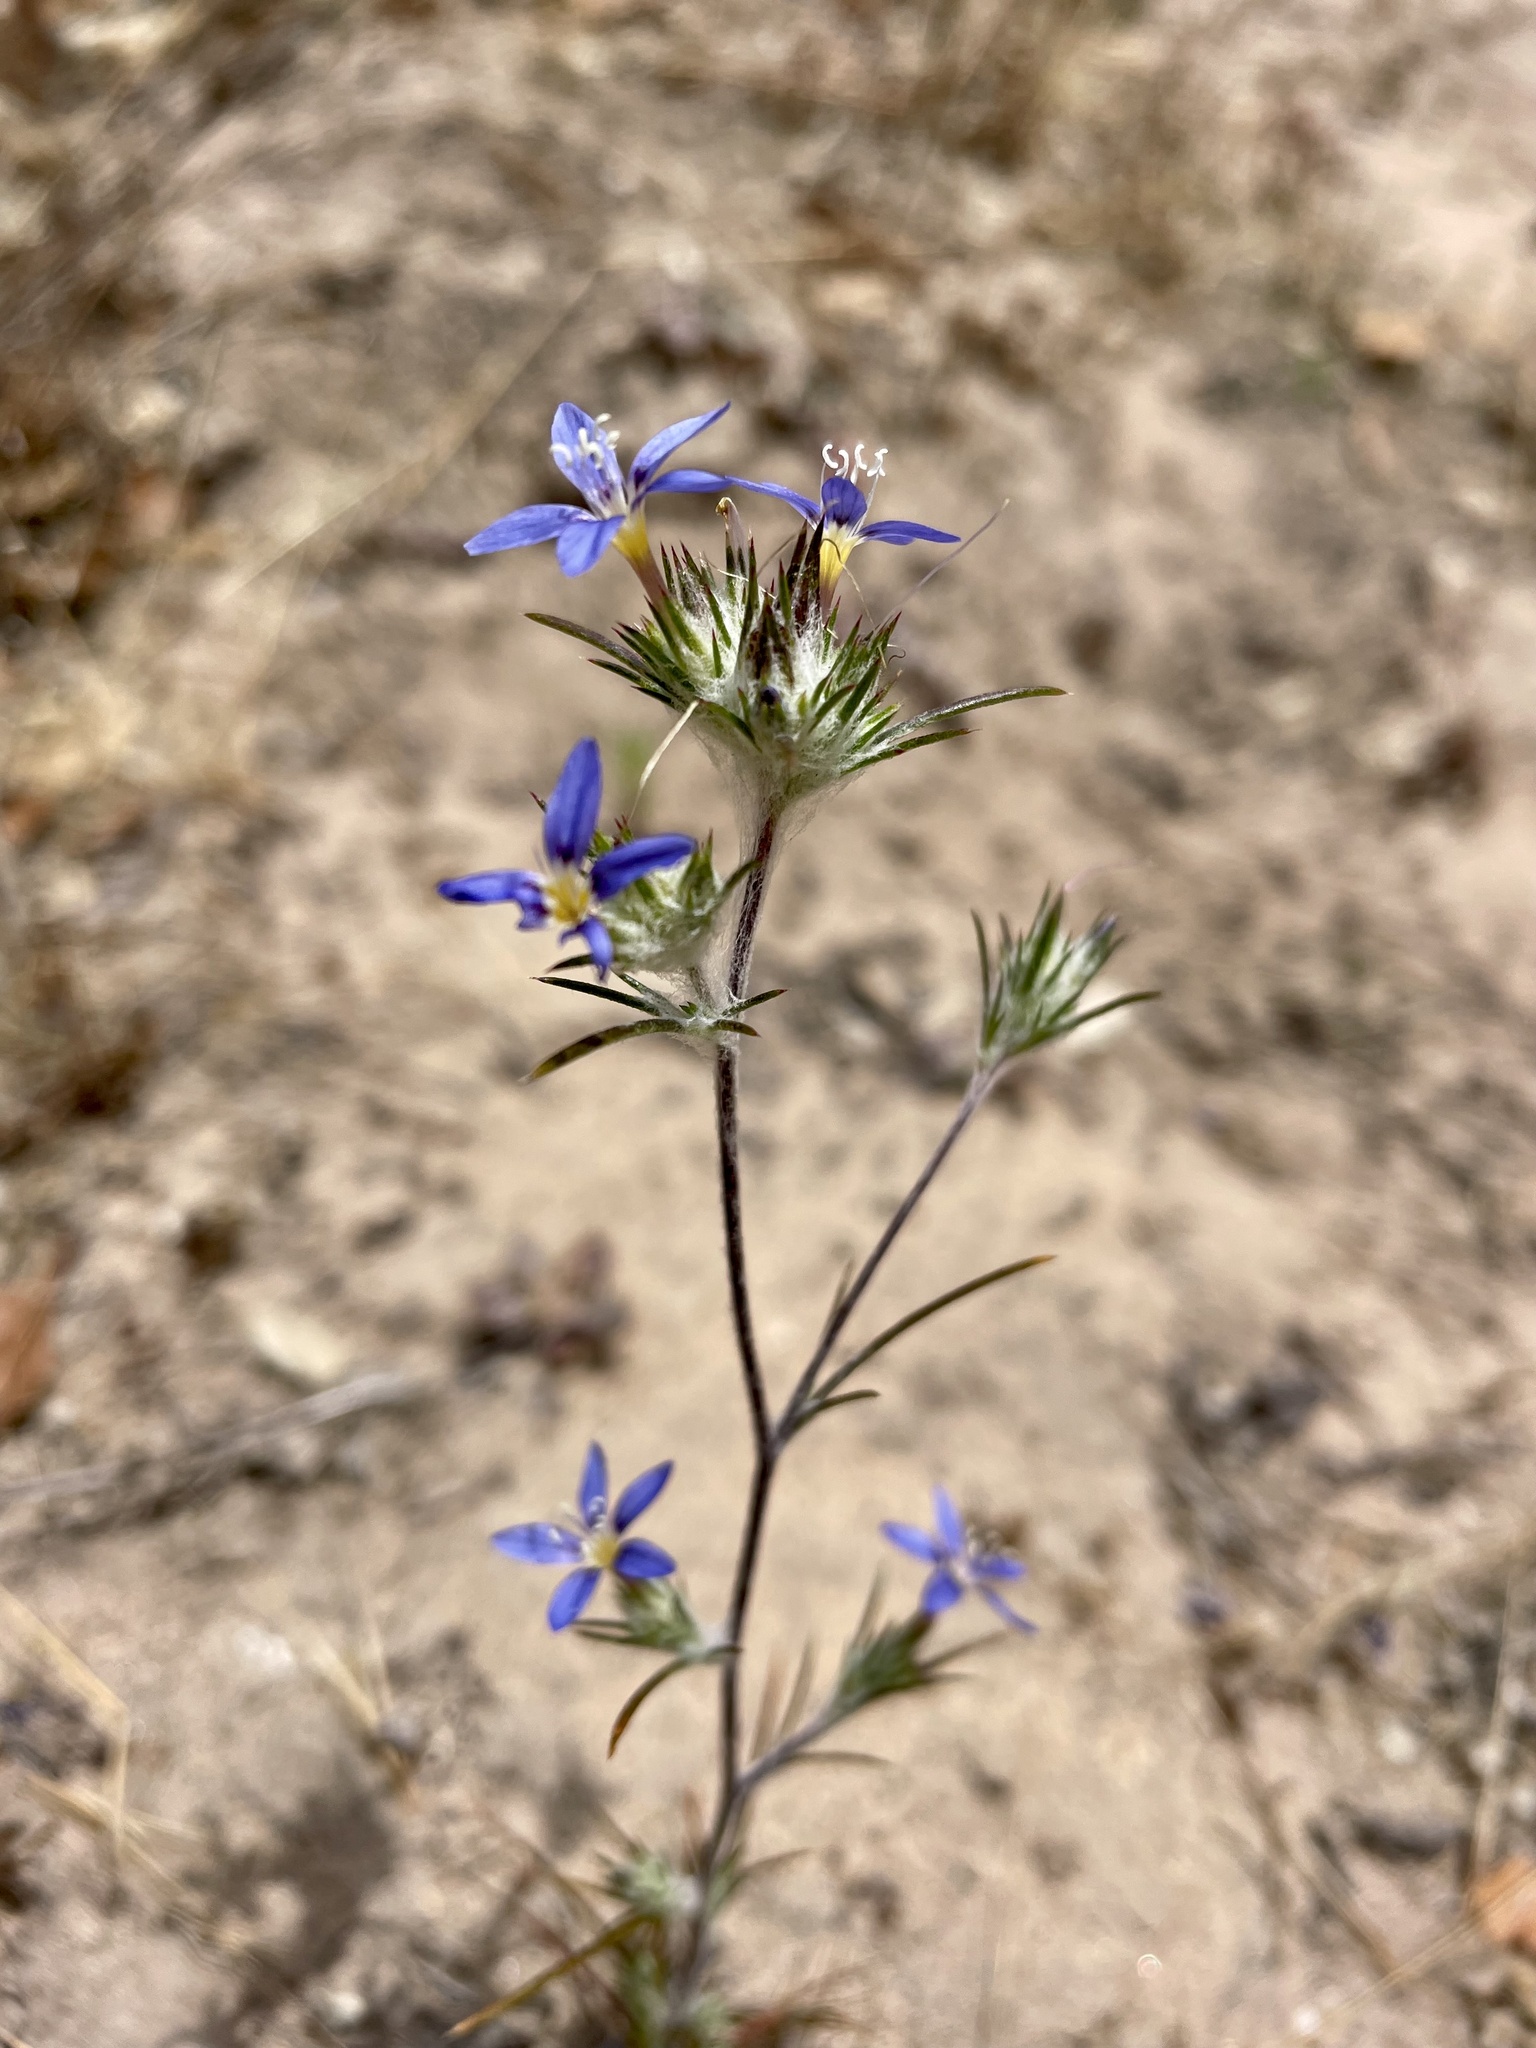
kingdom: Plantae
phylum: Tracheophyta
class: Magnoliopsida
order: Ericales
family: Polemoniaceae
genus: Eriastrum
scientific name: Eriastrum virgatum
